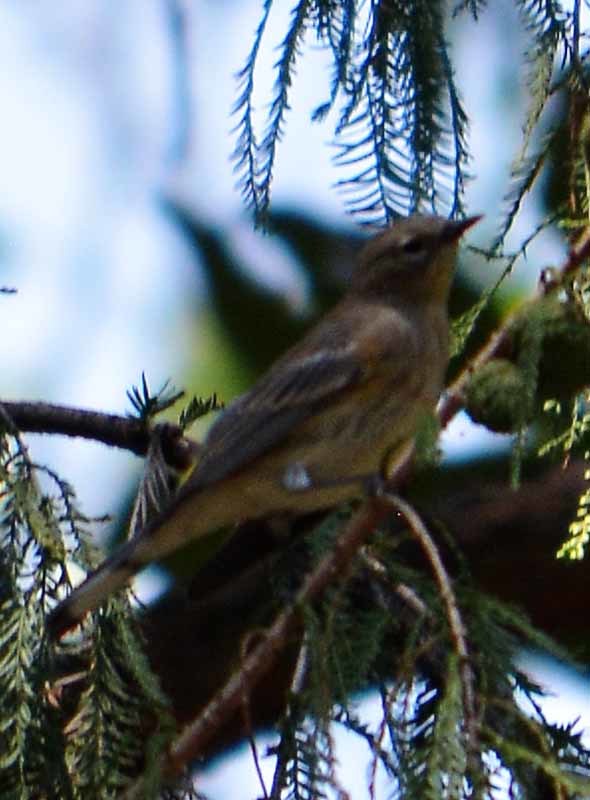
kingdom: Animalia
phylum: Chordata
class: Aves
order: Passeriformes
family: Parulidae
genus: Setophaga
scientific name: Setophaga coronata
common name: Myrtle warbler
